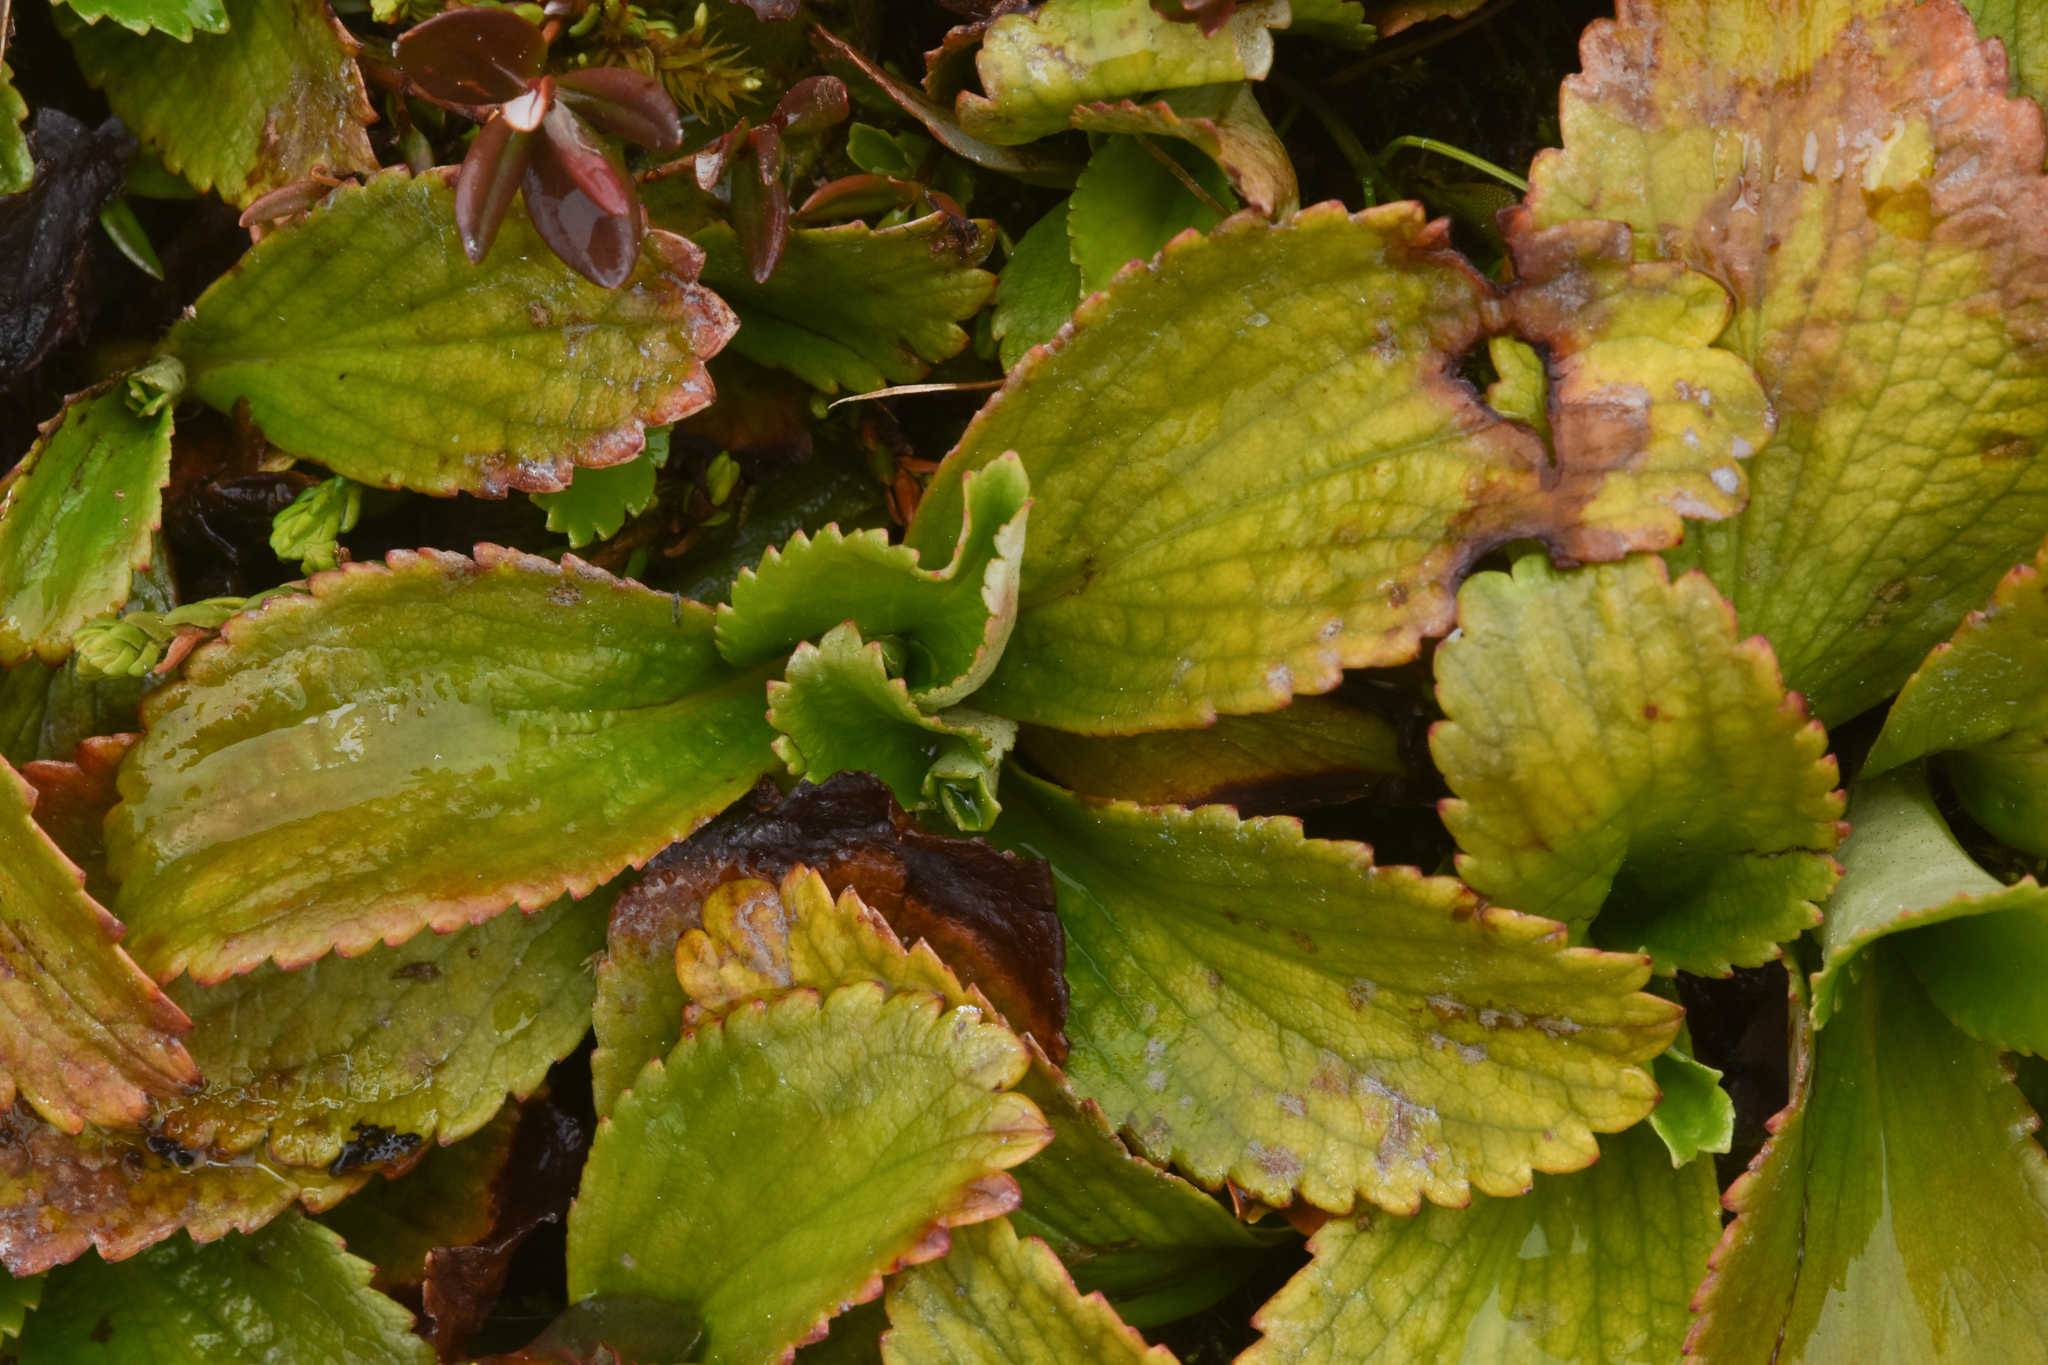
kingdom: Plantae
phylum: Tracheophyta
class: Magnoliopsida
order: Saxifragales
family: Saxifragaceae
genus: Leptarrhena
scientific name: Leptarrhena pyrolifolia
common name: Leatherleaf-saxifrage
